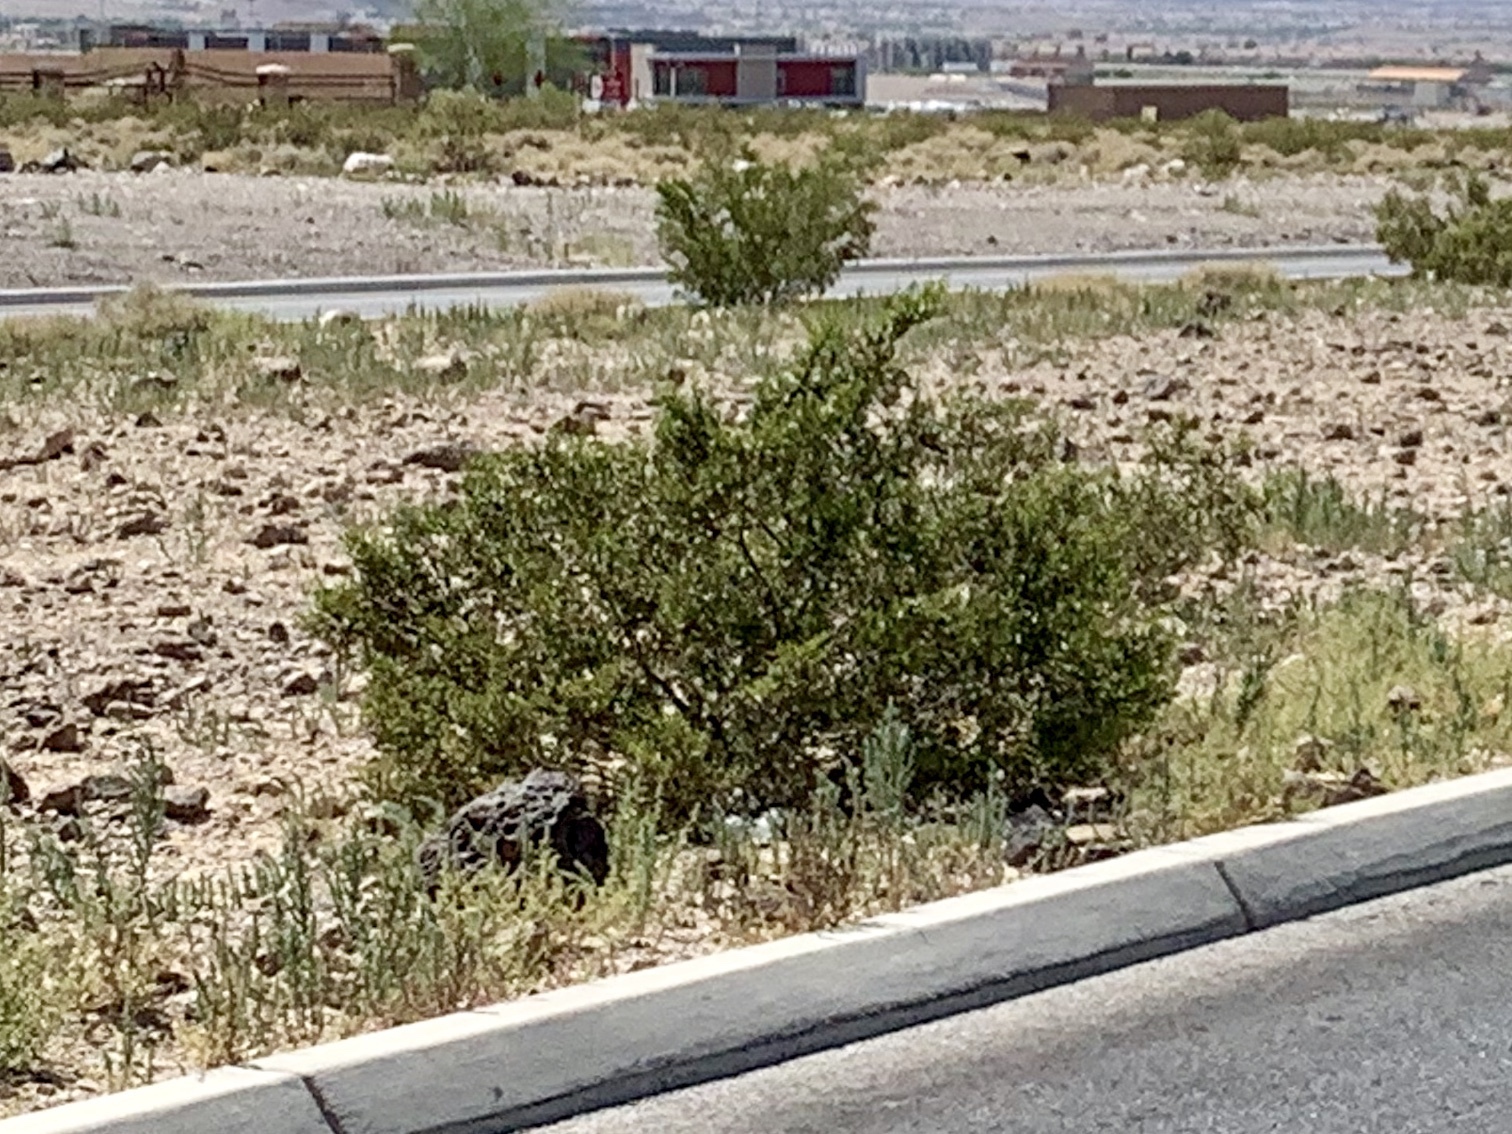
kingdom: Plantae
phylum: Tracheophyta
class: Magnoliopsida
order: Zygophyllales
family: Zygophyllaceae
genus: Larrea
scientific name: Larrea tridentata
